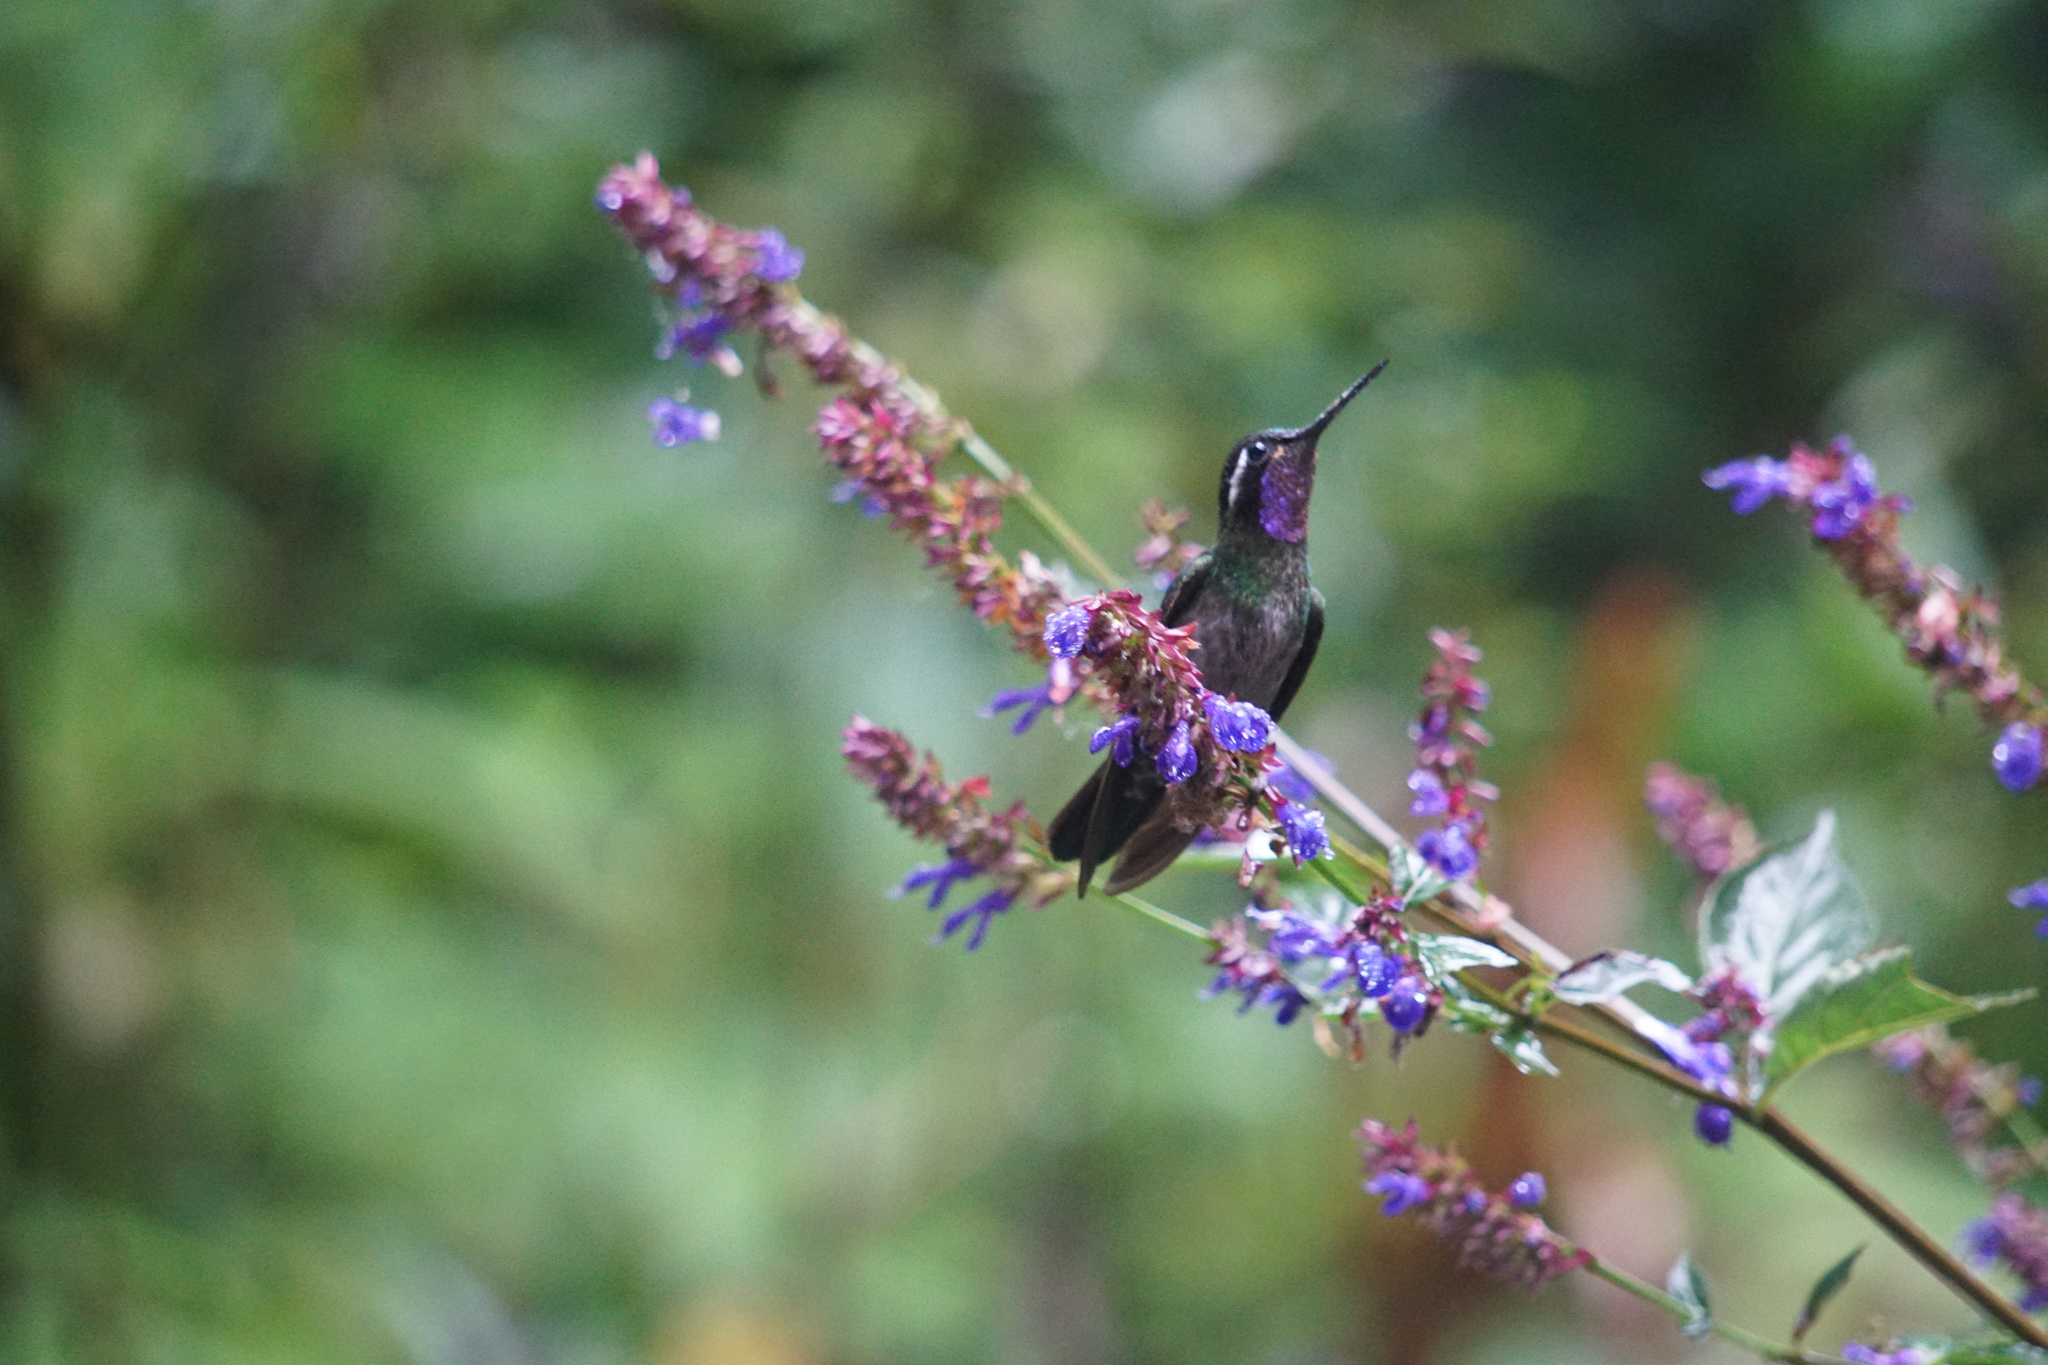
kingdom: Animalia
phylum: Chordata
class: Aves
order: Apodiformes
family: Trochilidae
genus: Lampornis
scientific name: Lampornis calolaemus
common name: Purple-throated mountain-gem
